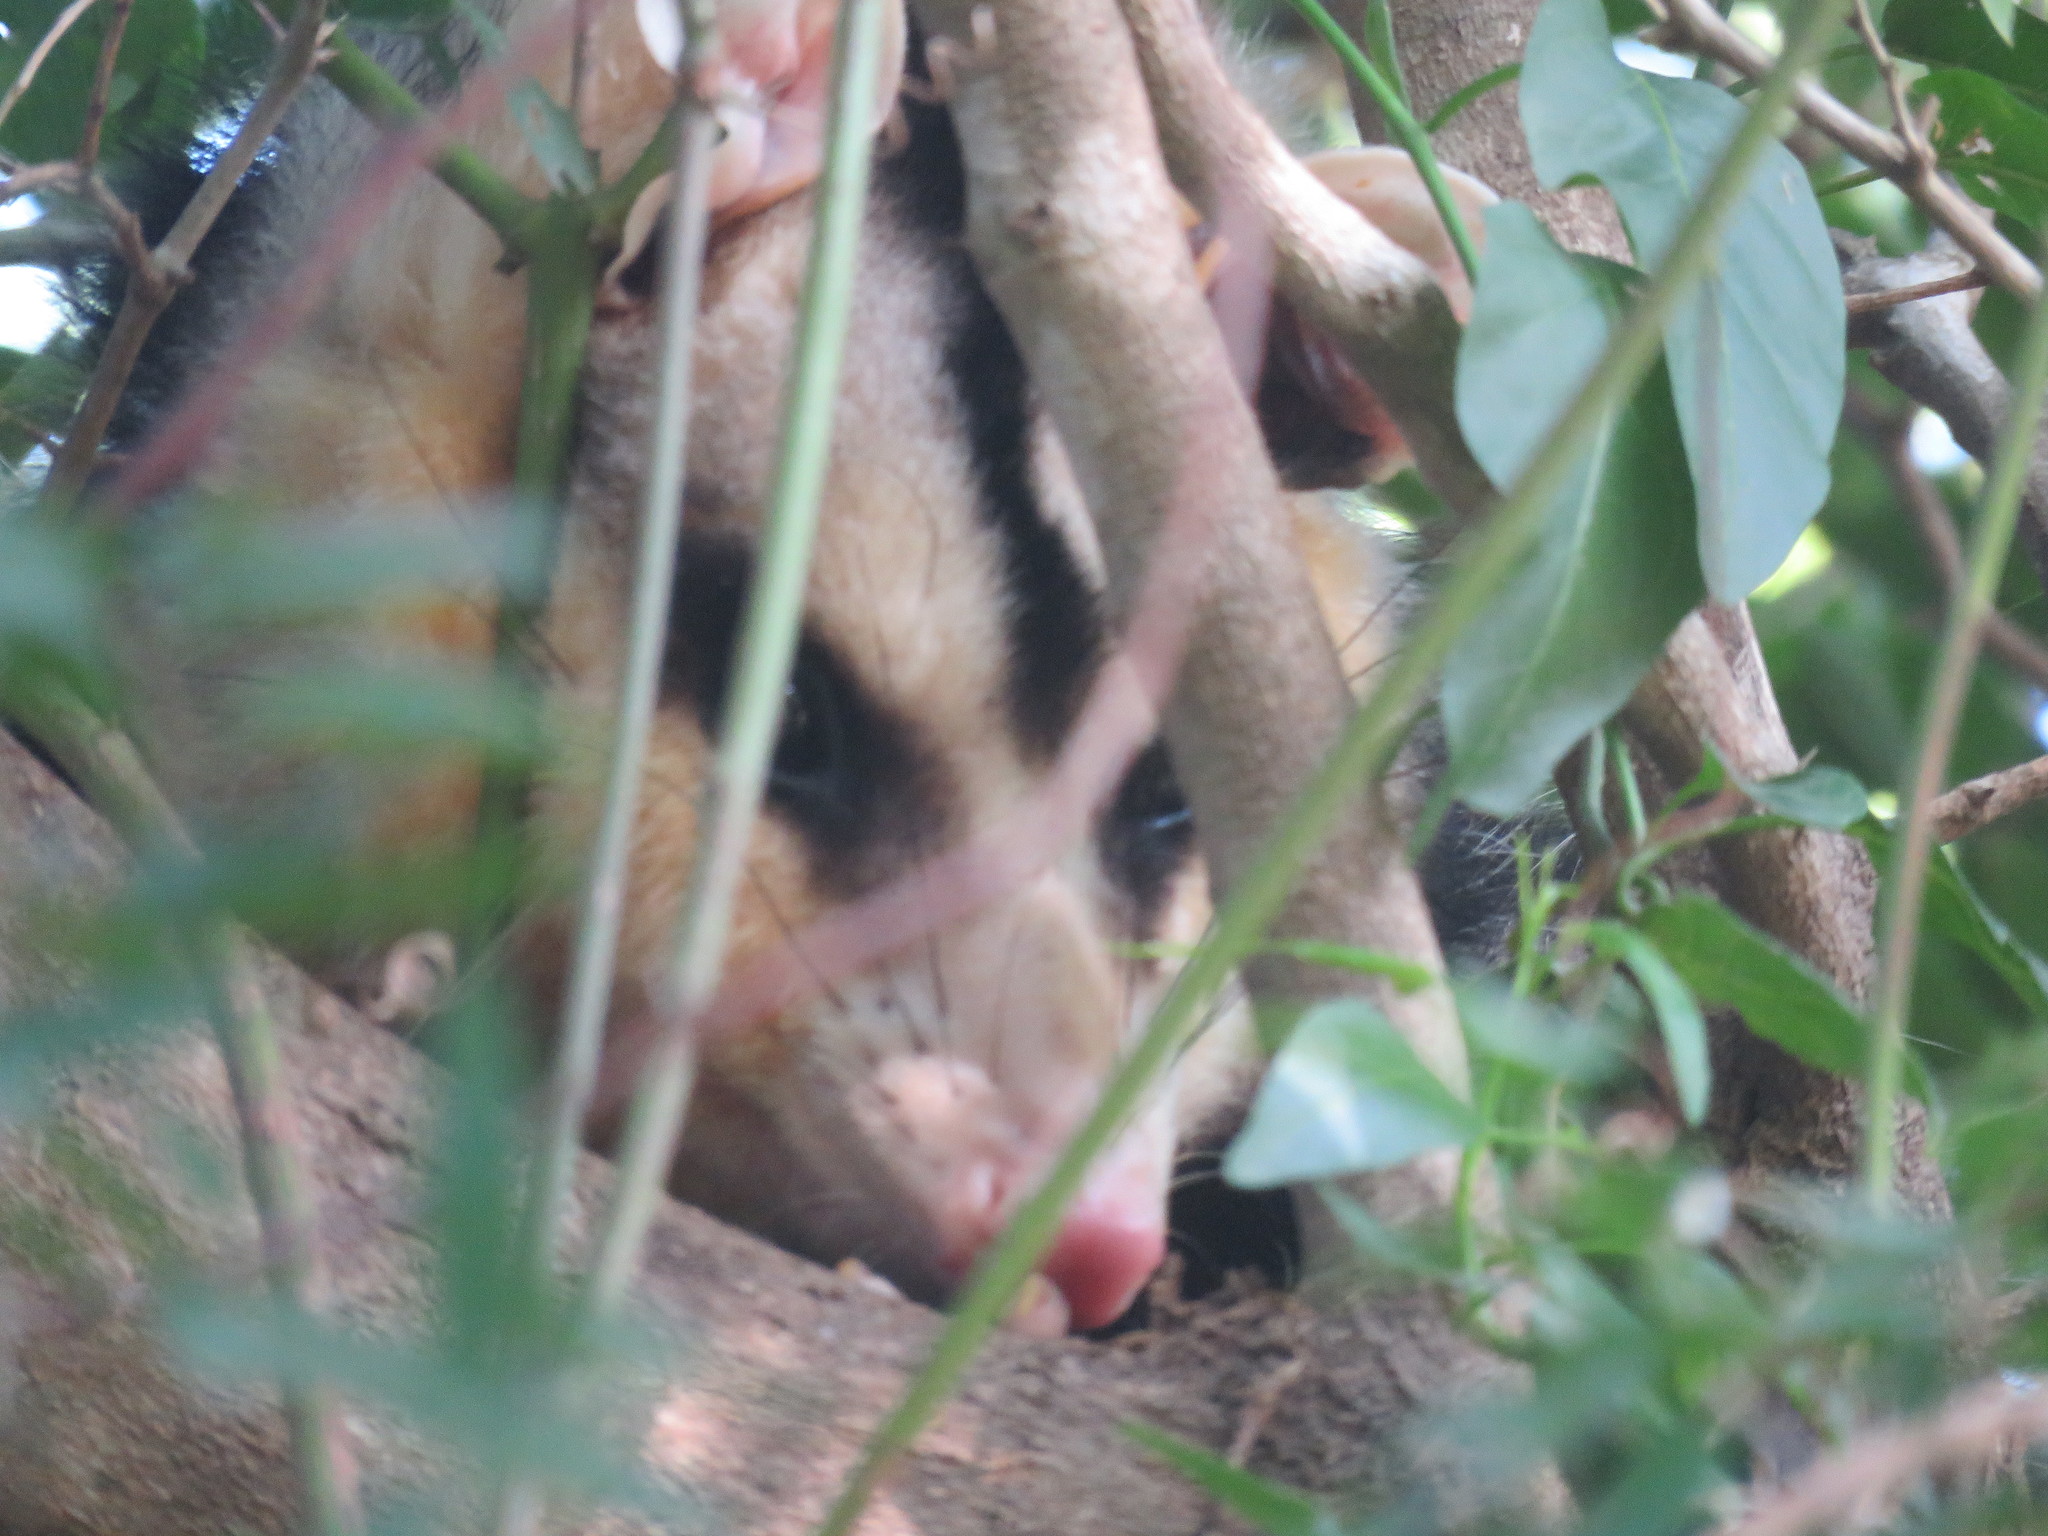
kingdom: Animalia
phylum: Chordata
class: Mammalia
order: Didelphimorphia
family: Didelphidae
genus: Didelphis
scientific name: Didelphis albiventris
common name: White-eared opossum
